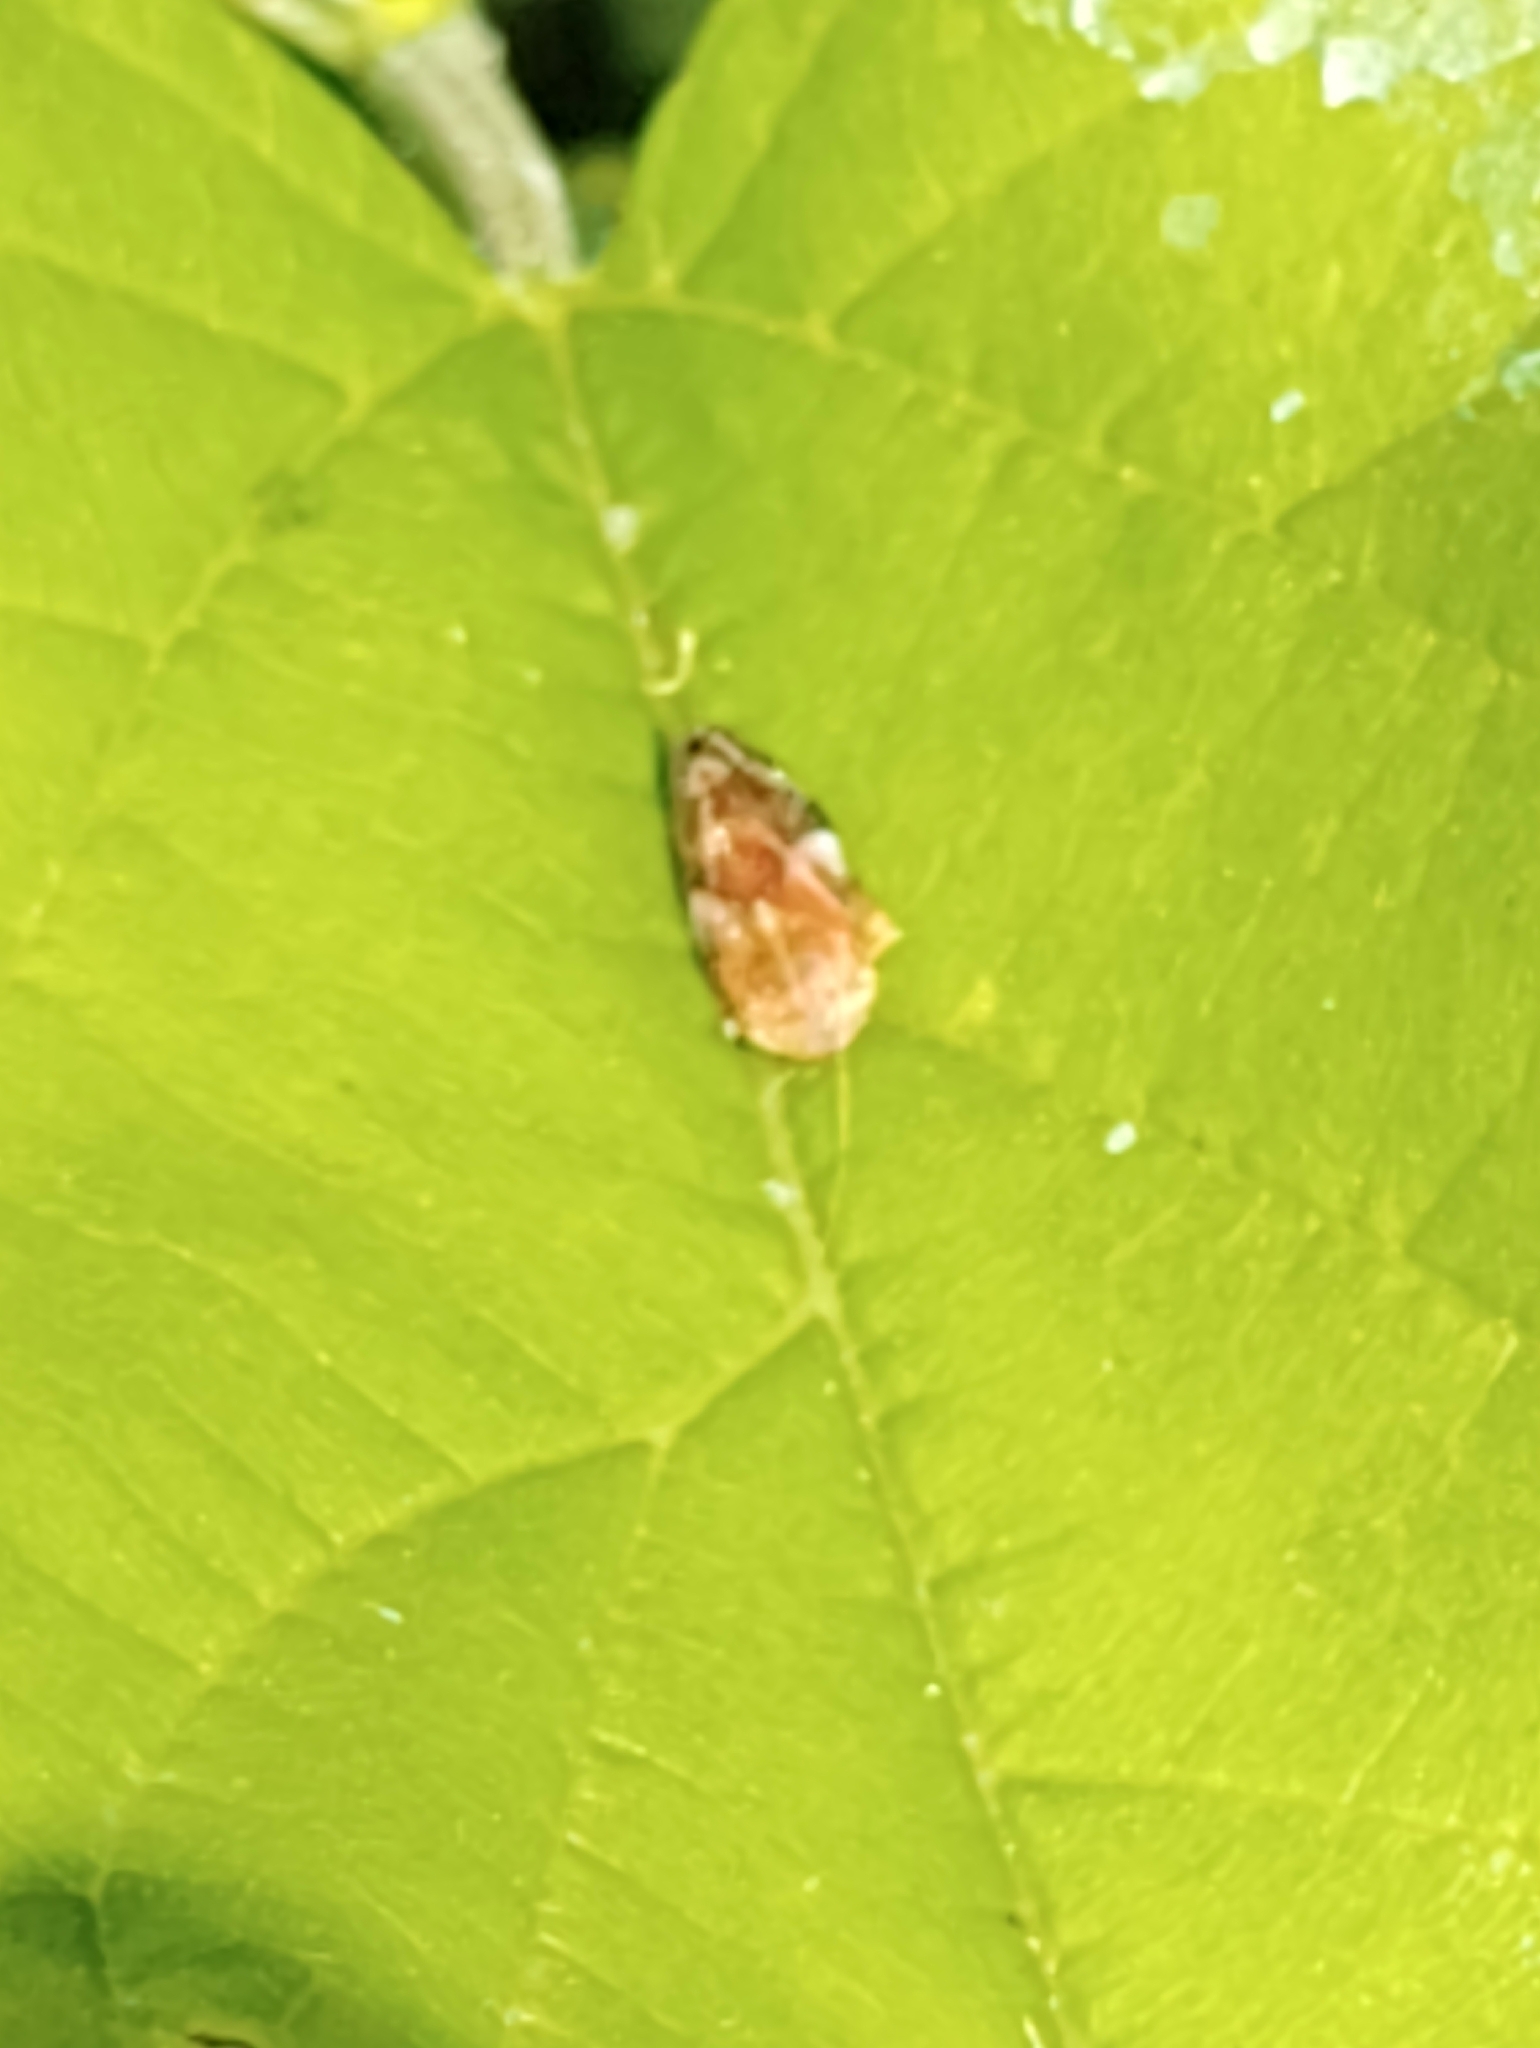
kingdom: Animalia
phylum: Arthropoda
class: Insecta
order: Hemiptera
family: Aphrophoridae
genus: Philaenus
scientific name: Philaenus spumarius
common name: Meadow spittlebug
